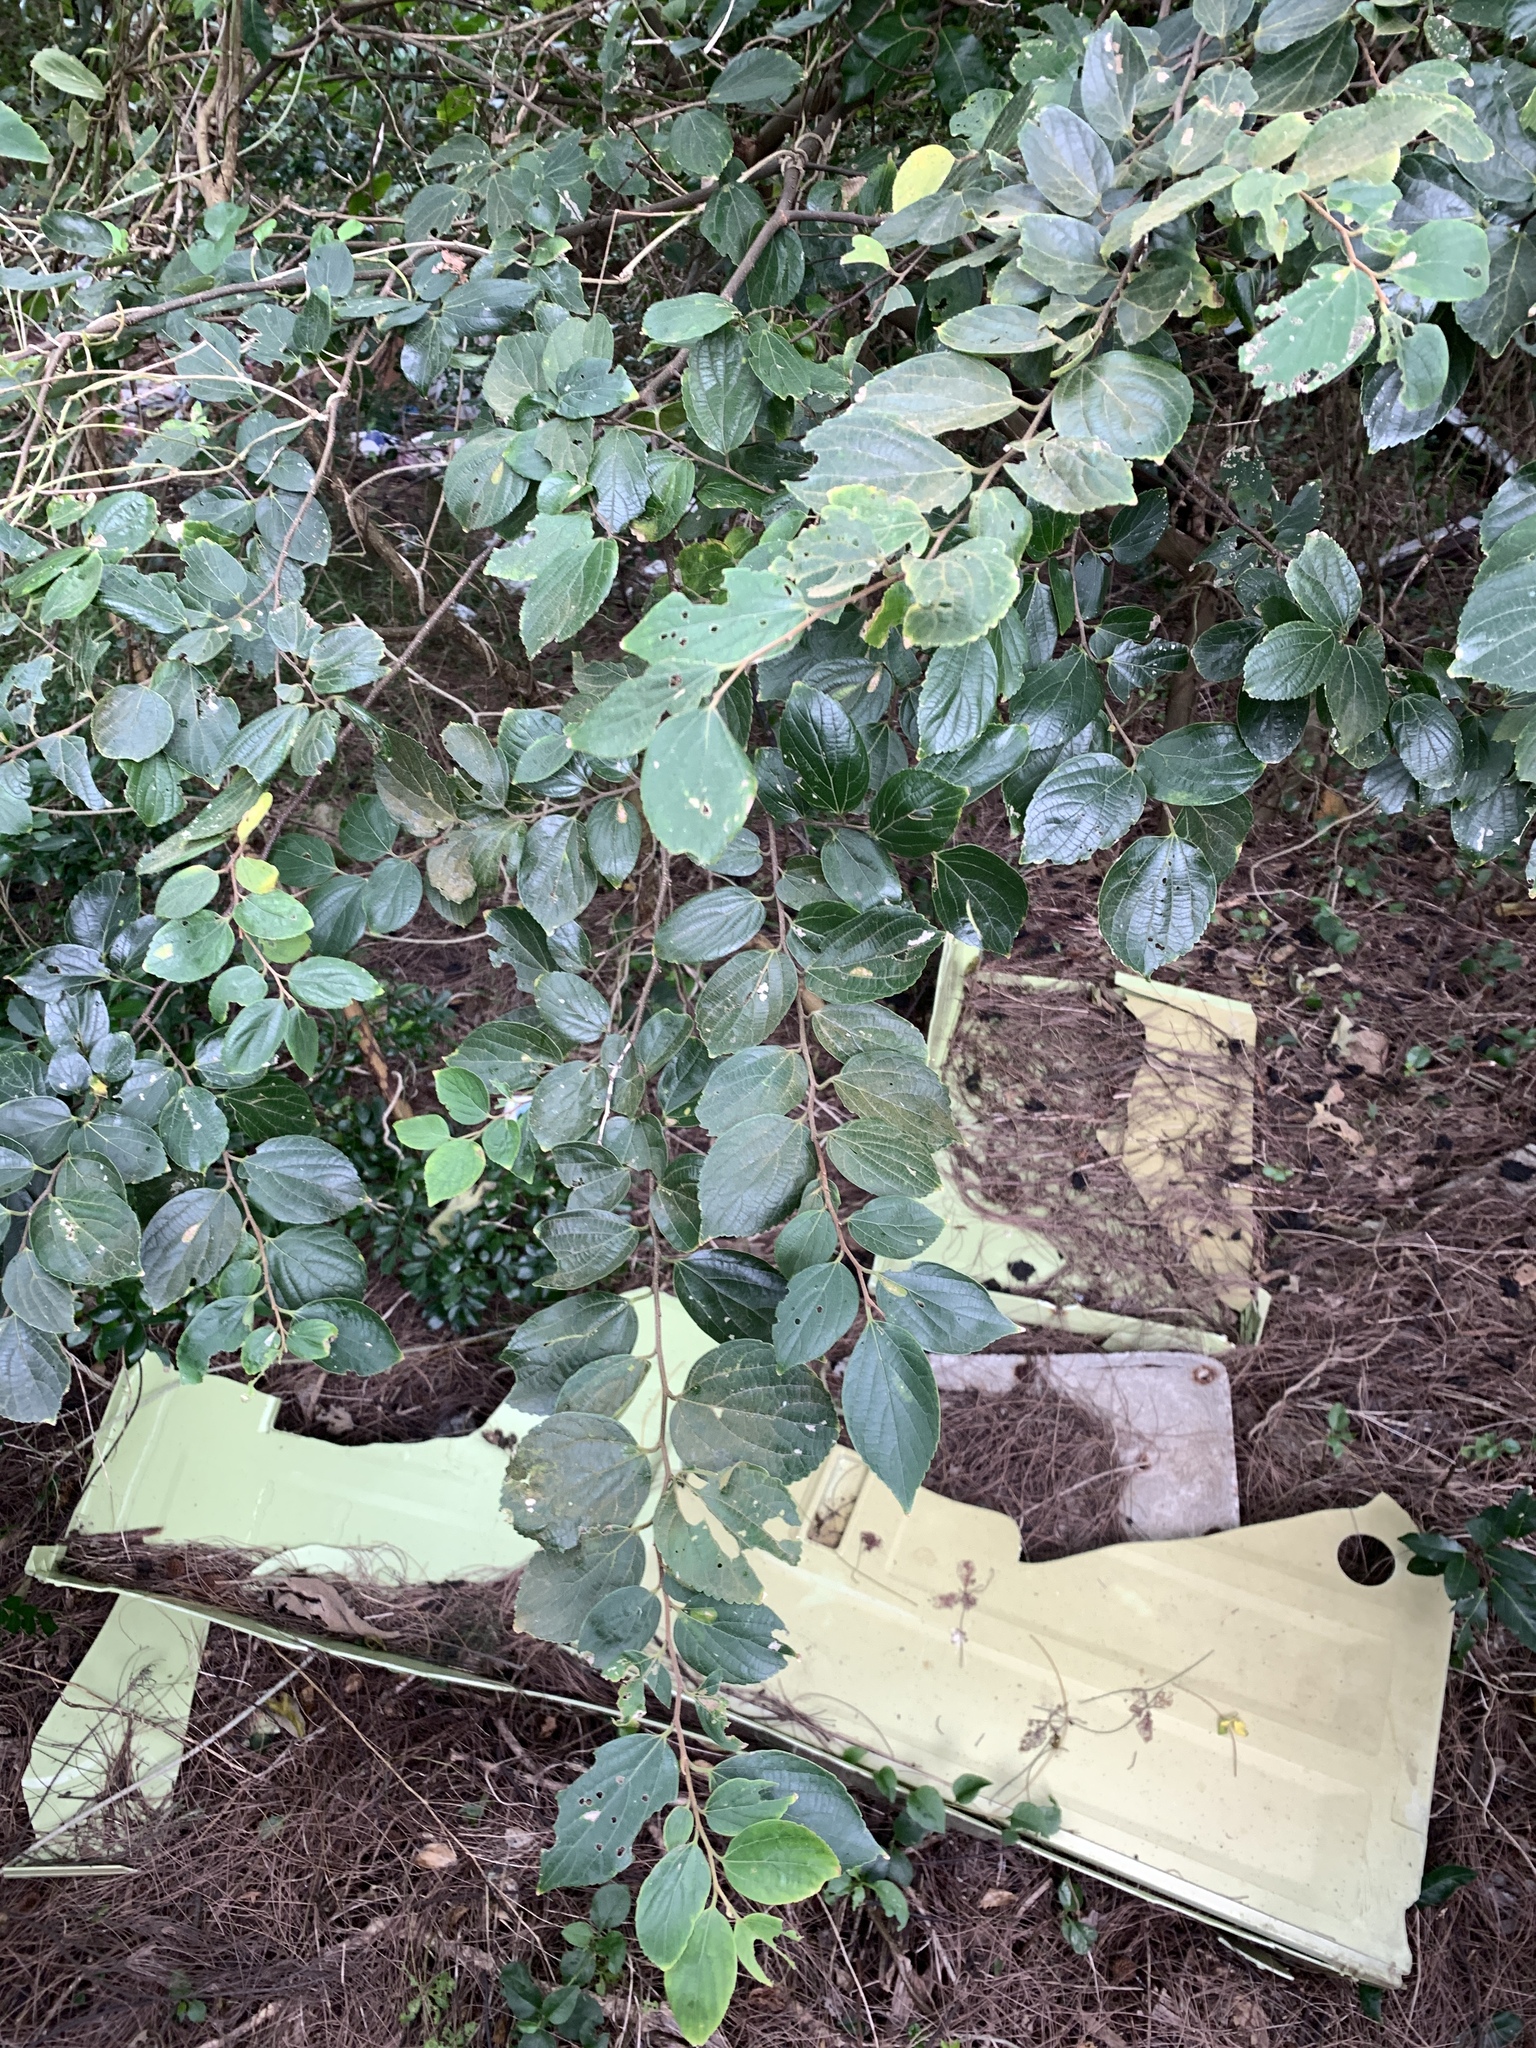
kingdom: Plantae
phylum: Tracheophyta
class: Magnoliopsida
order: Rosales
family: Cannabaceae
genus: Celtis
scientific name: Celtis sinensis
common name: Chinese hackberry
